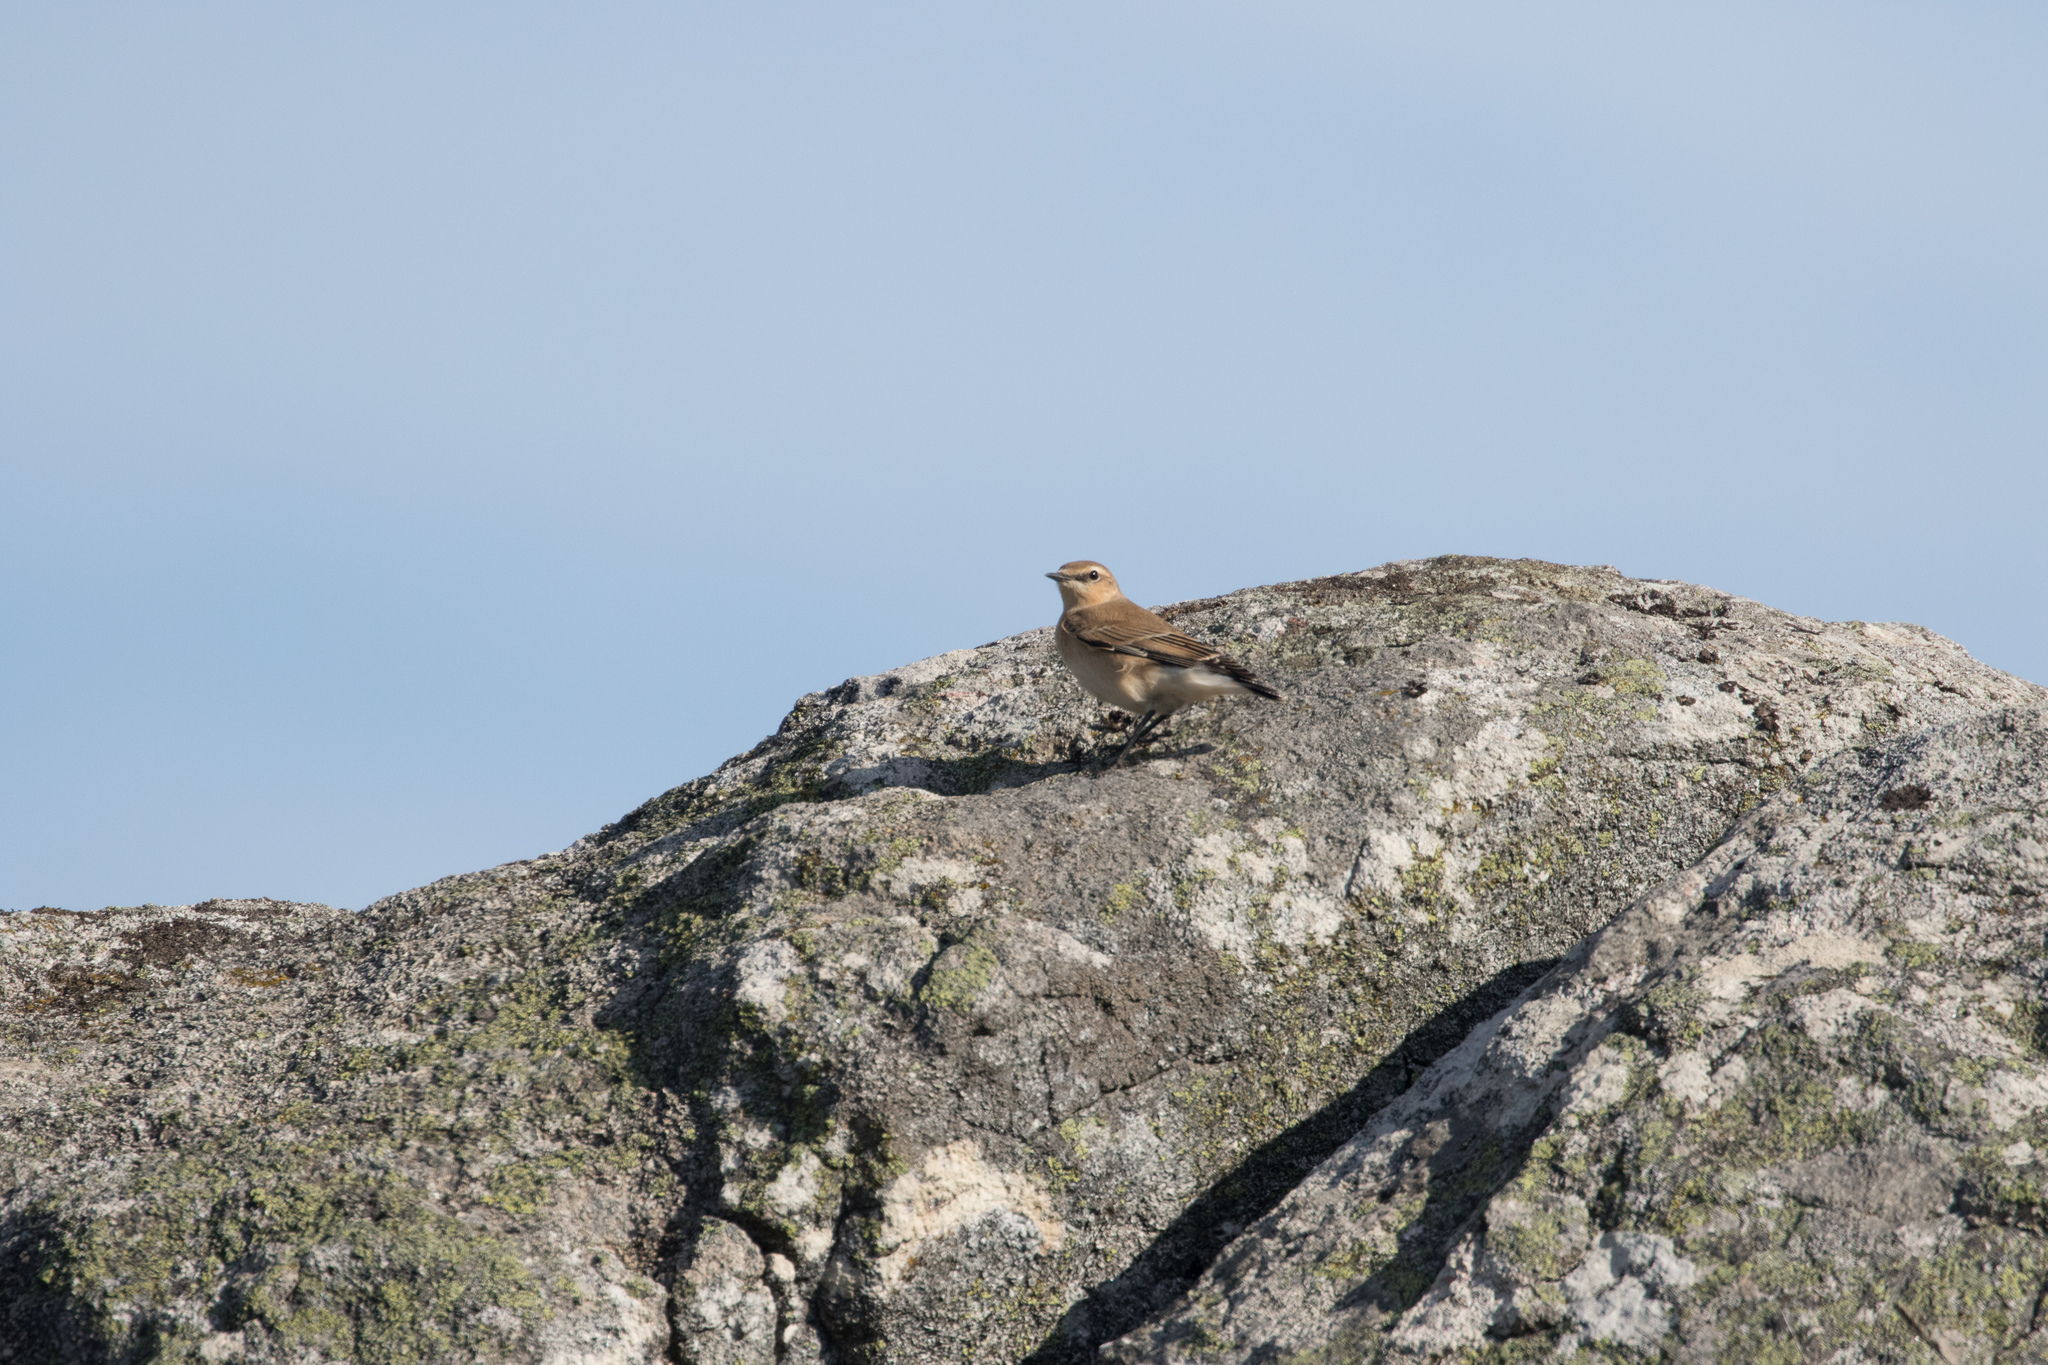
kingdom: Animalia
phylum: Chordata
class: Aves
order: Passeriformes
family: Muscicapidae
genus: Oenanthe
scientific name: Oenanthe oenanthe
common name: Northern wheatear
